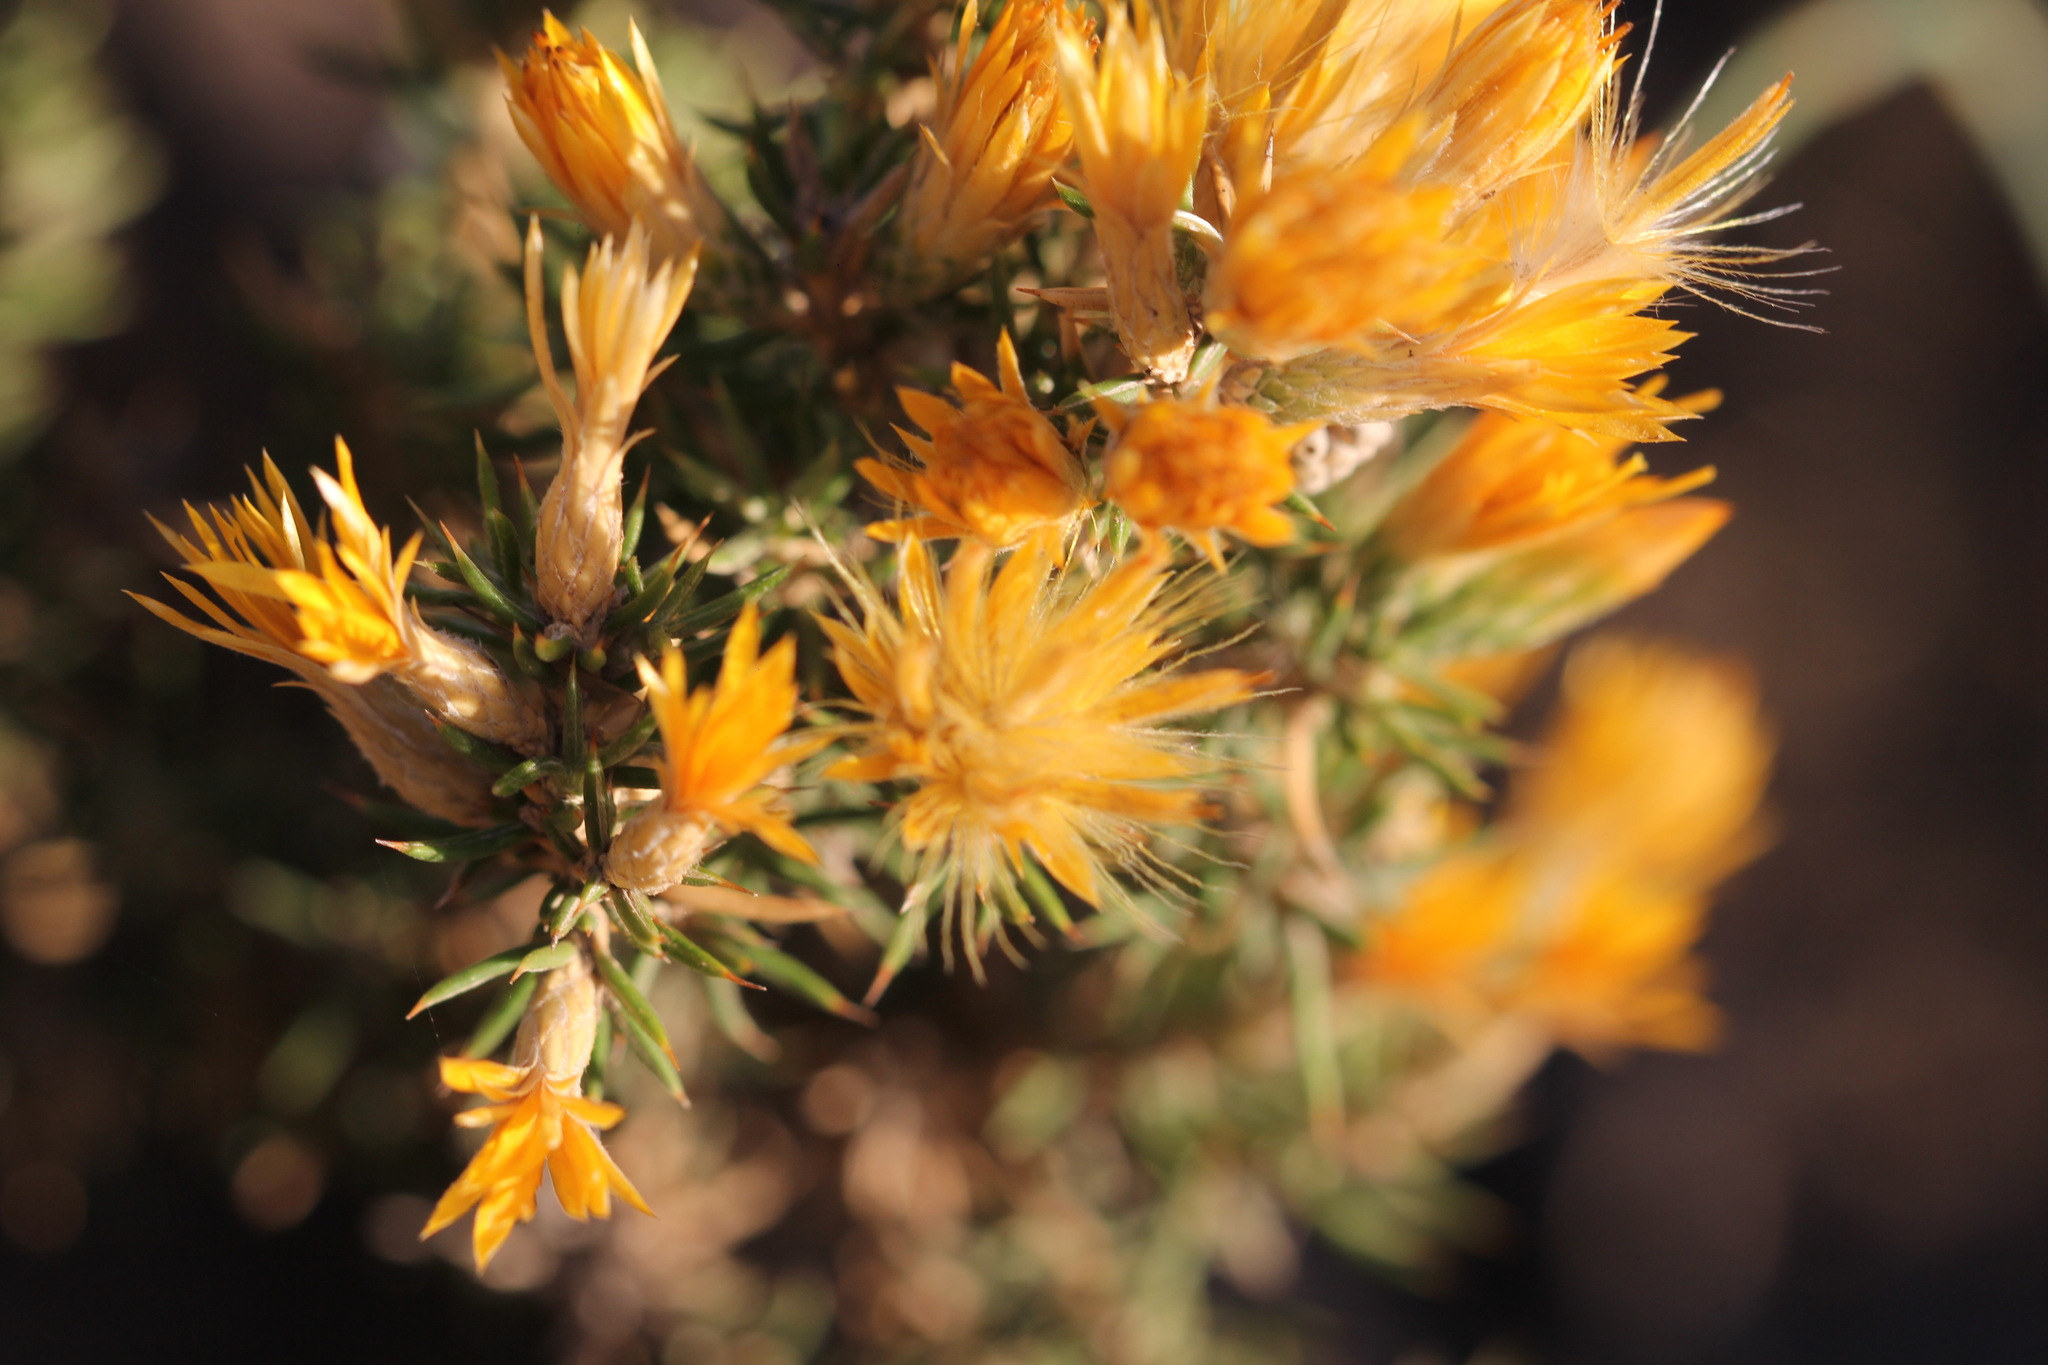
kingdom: Plantae
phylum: Tracheophyta
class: Magnoliopsida
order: Asterales
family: Asteraceae
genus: Chuquiraga
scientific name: Chuquiraga erinacea
